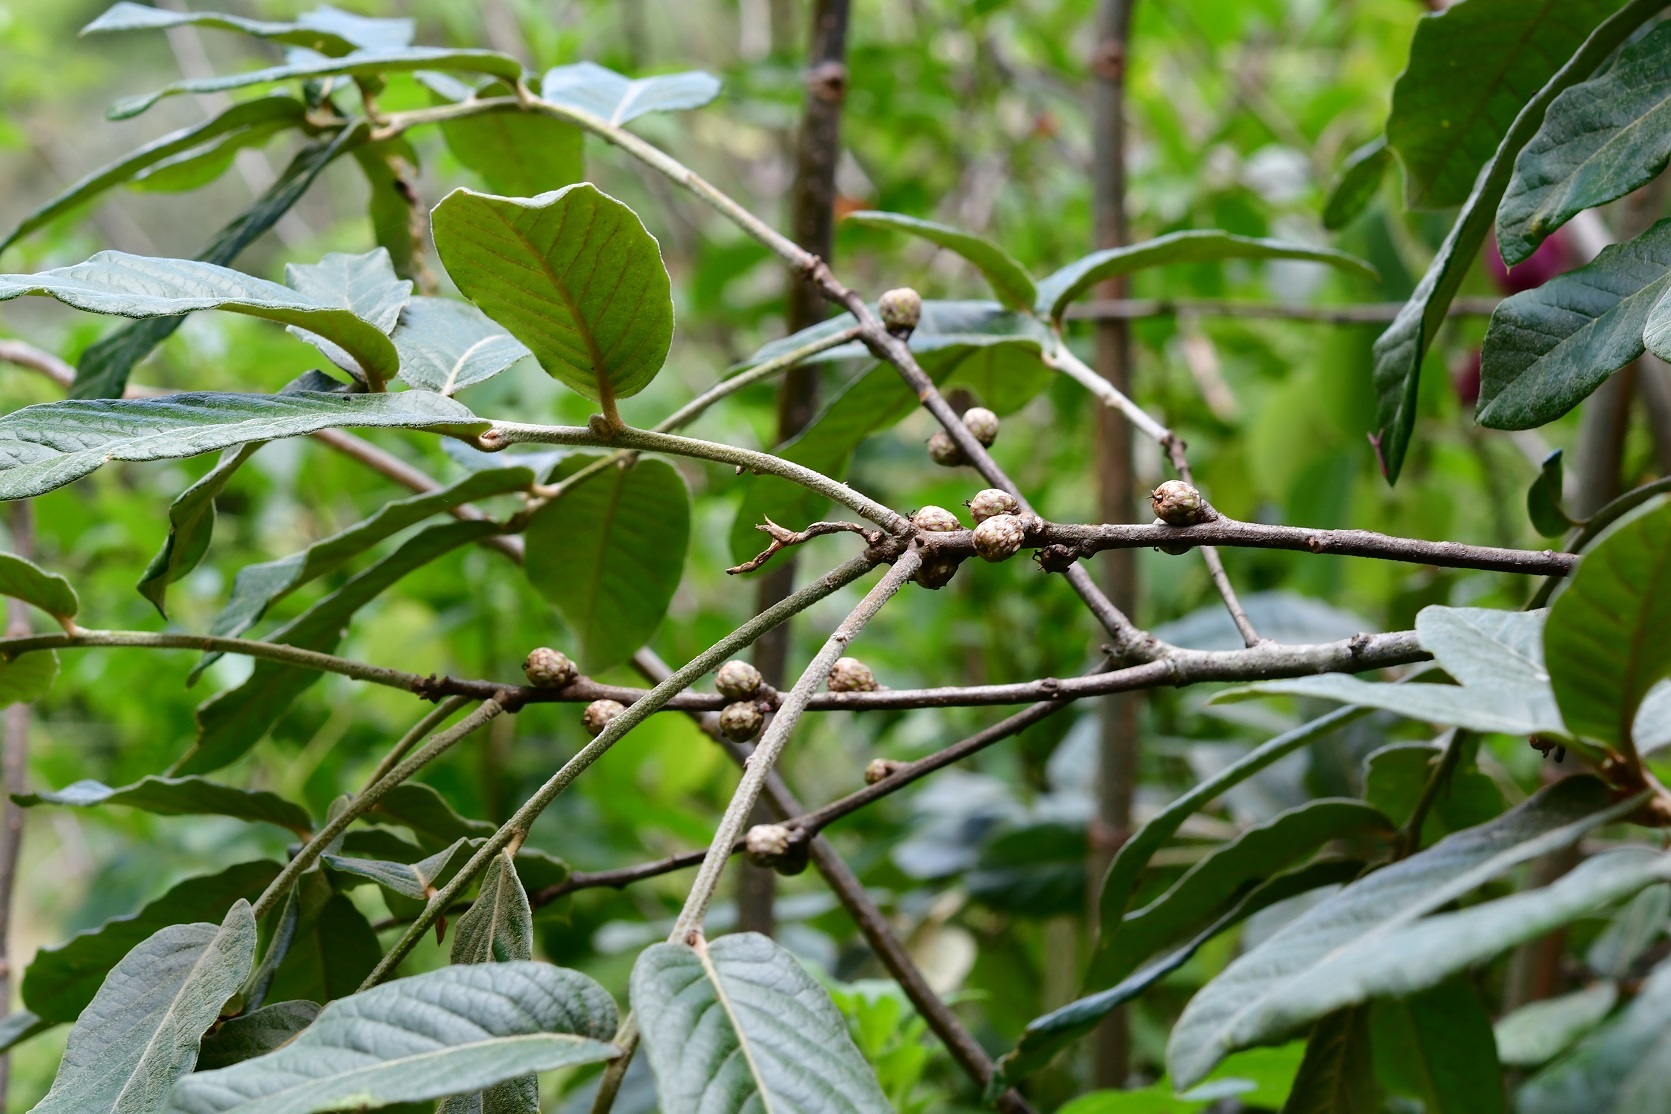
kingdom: Plantae
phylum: Tracheophyta
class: Magnoliopsida
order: Fagales
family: Fagaceae
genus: Quercus
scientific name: Quercus dysophylla
